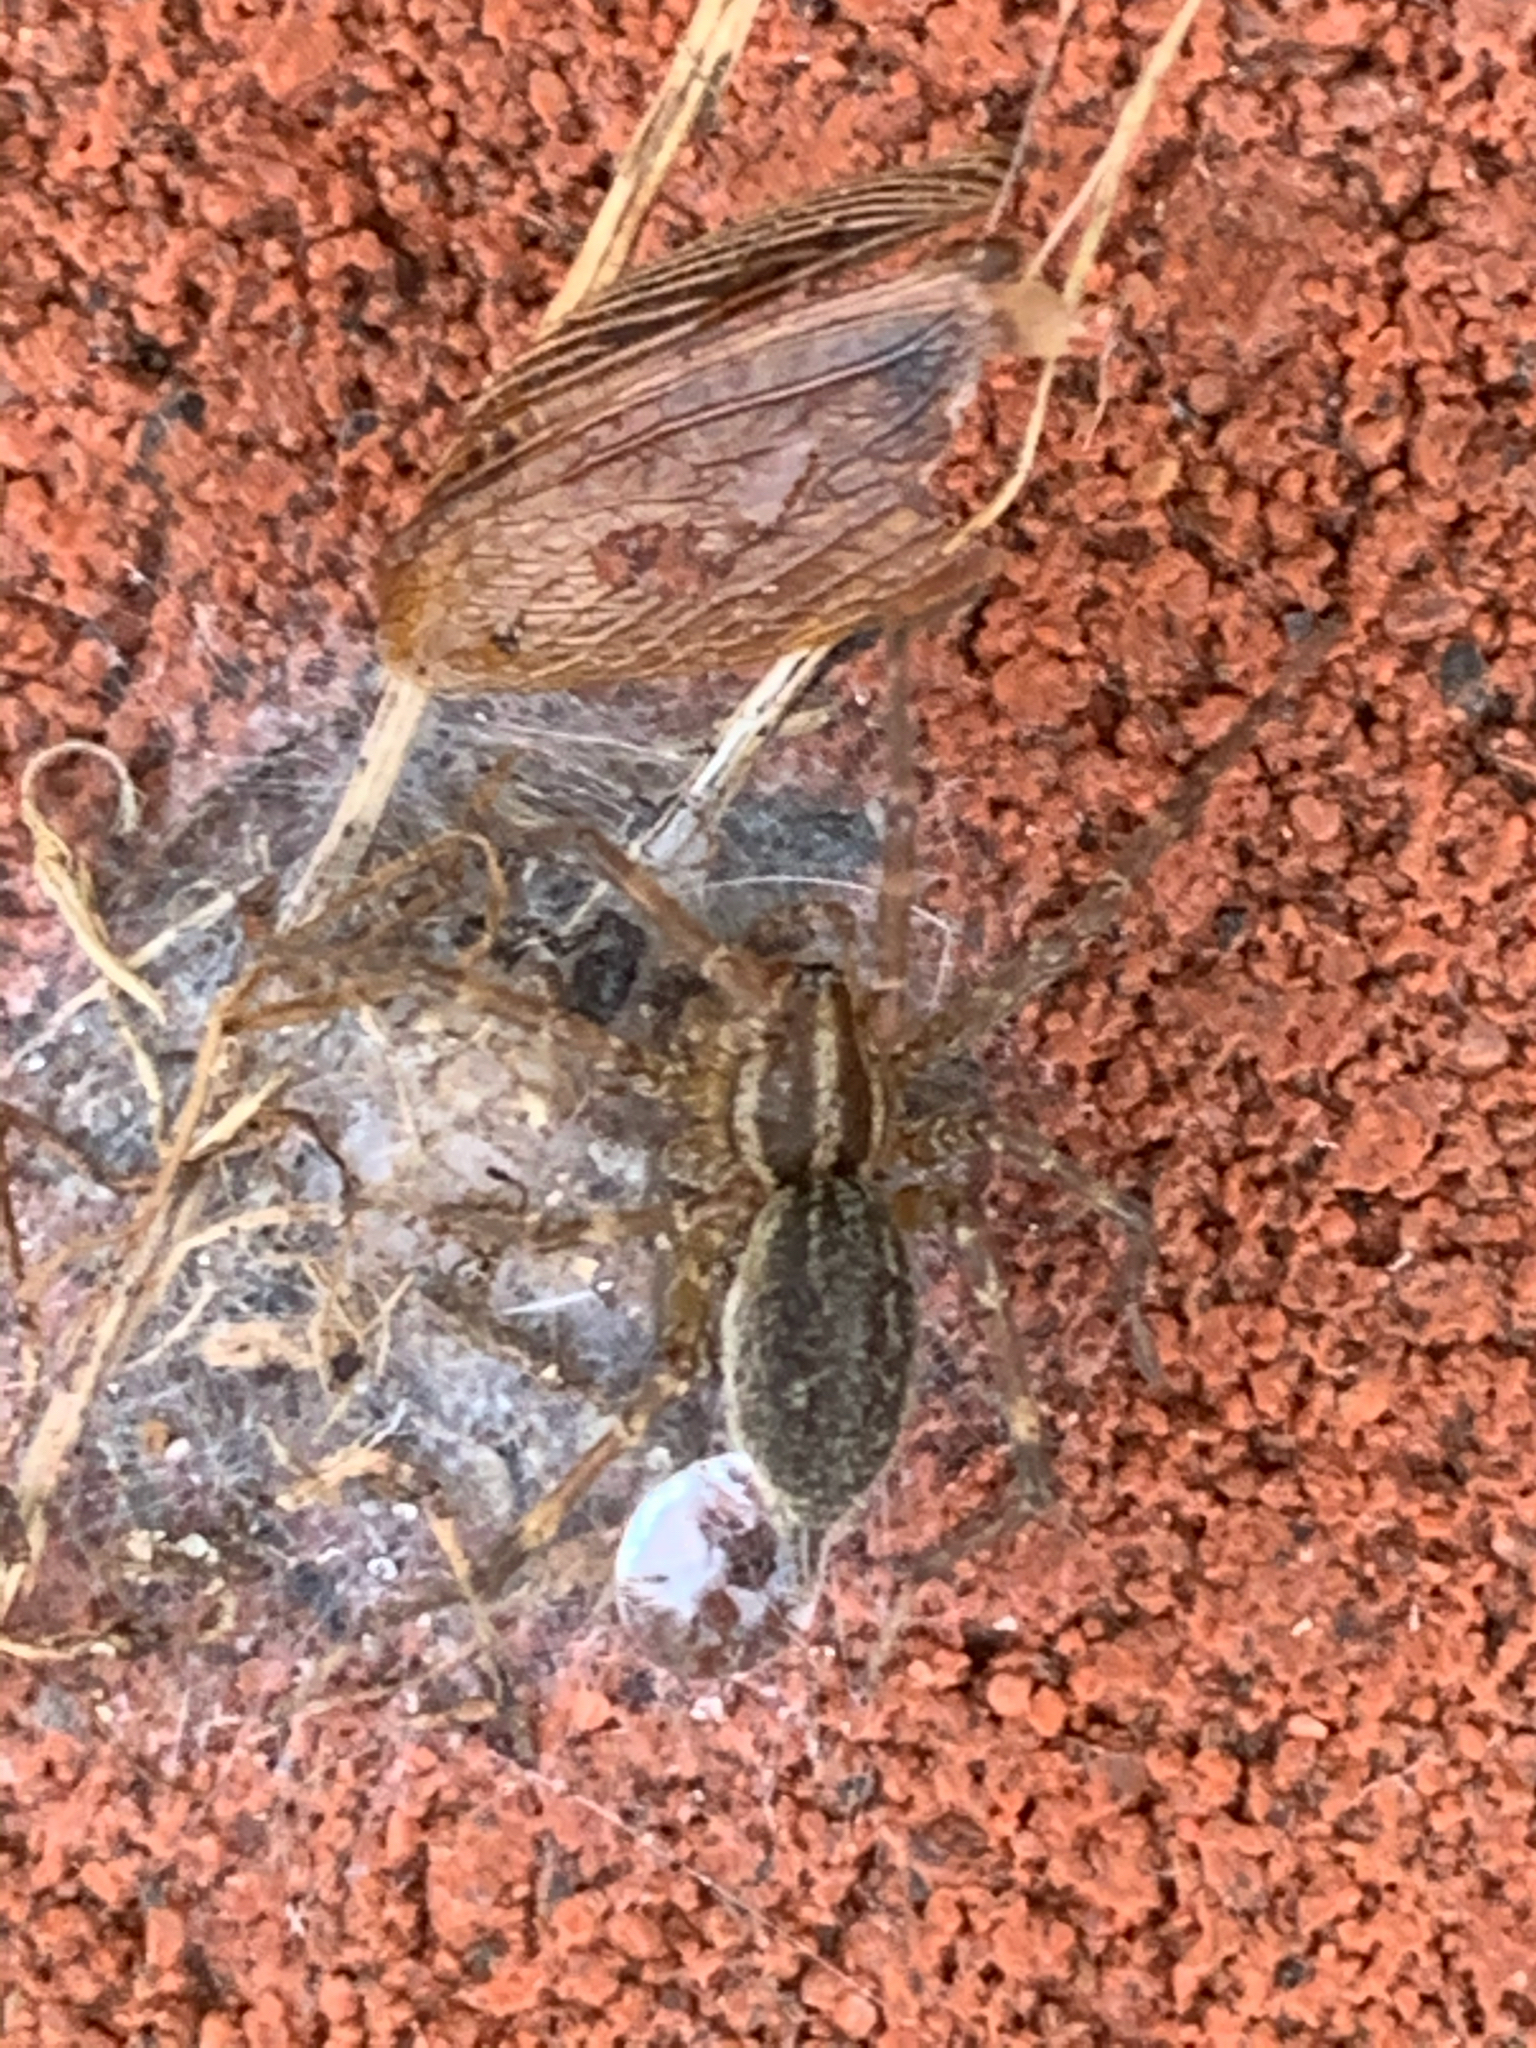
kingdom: Animalia
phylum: Arthropoda
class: Arachnida
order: Araneae
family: Agelenidae
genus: Agelenopsis
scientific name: Agelenopsis
